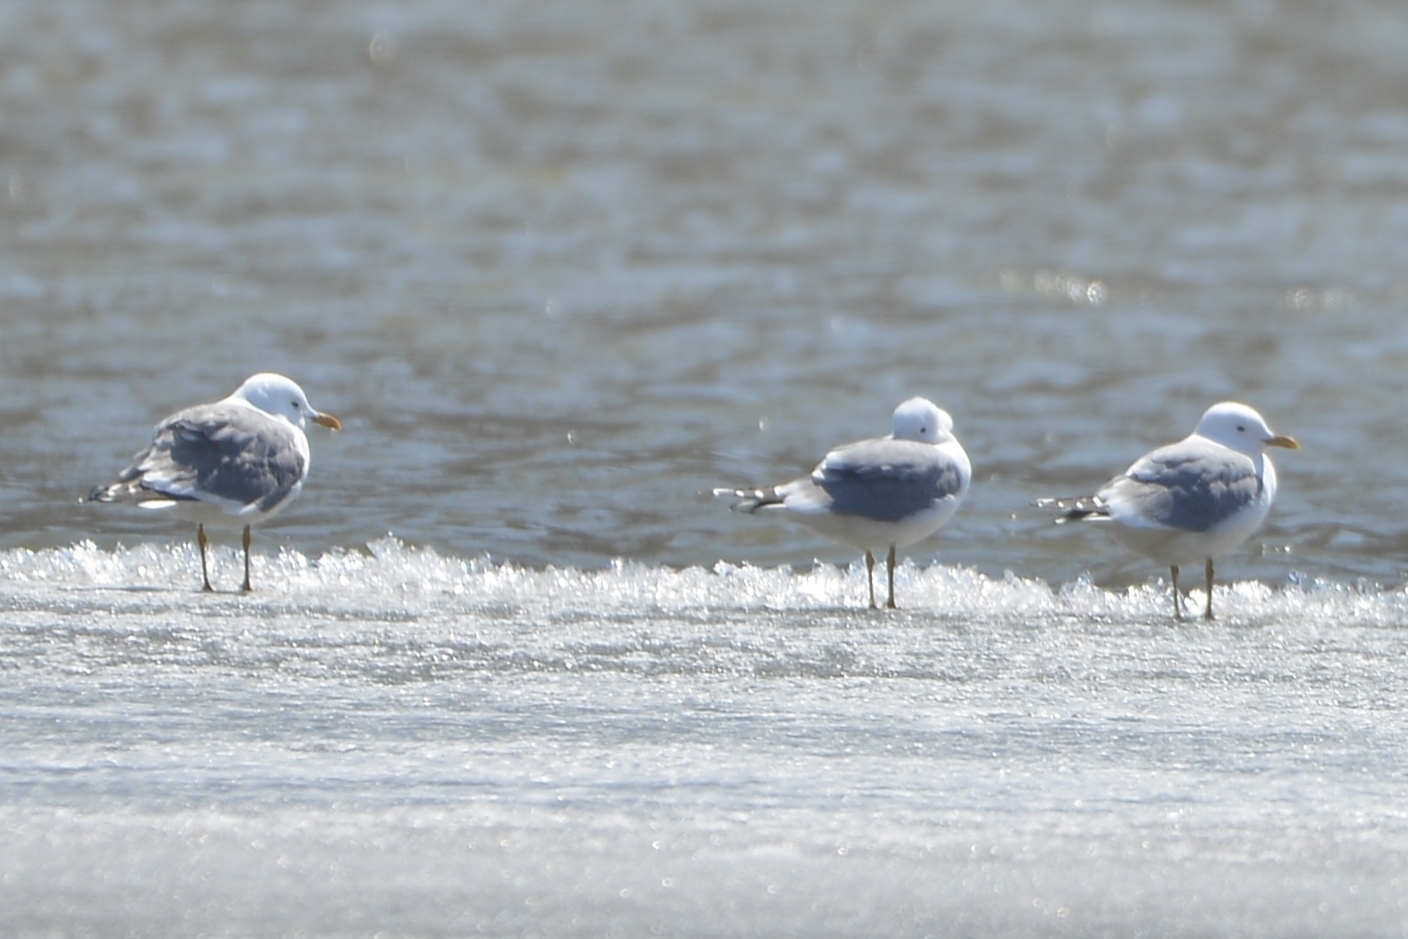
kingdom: Animalia
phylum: Chordata
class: Aves
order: Charadriiformes
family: Laridae
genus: Larus
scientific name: Larus canus
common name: Mew gull
